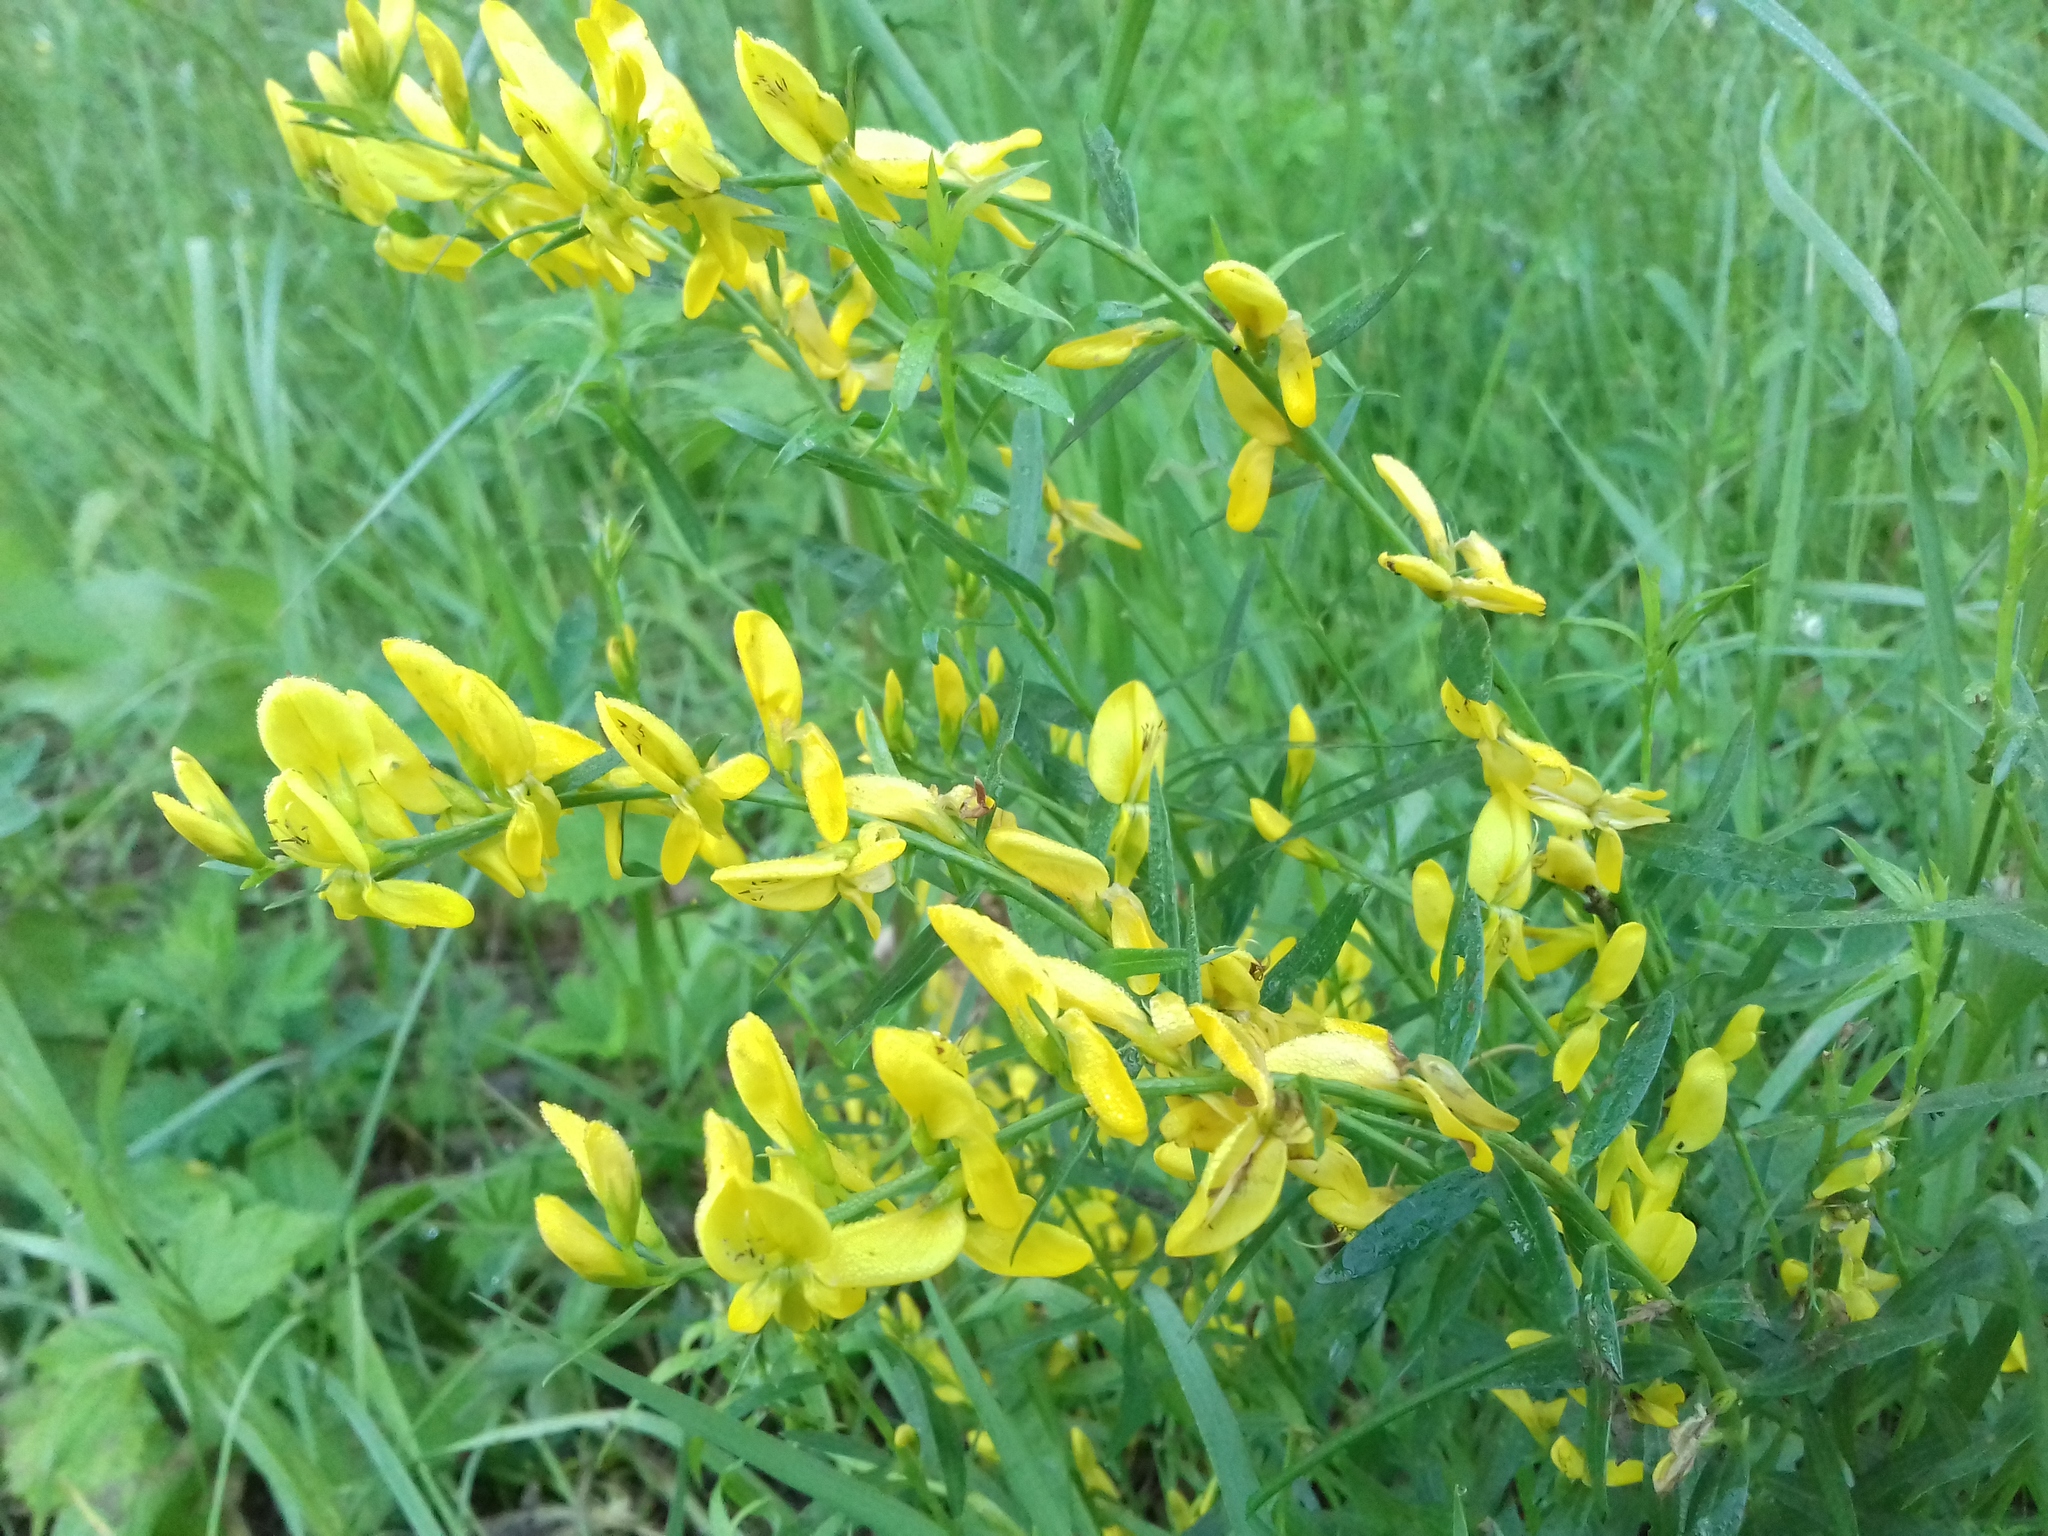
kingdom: Plantae
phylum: Tracheophyta
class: Magnoliopsida
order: Fabales
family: Fabaceae
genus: Genista
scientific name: Genista tinctoria
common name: Dyer's greenweed
